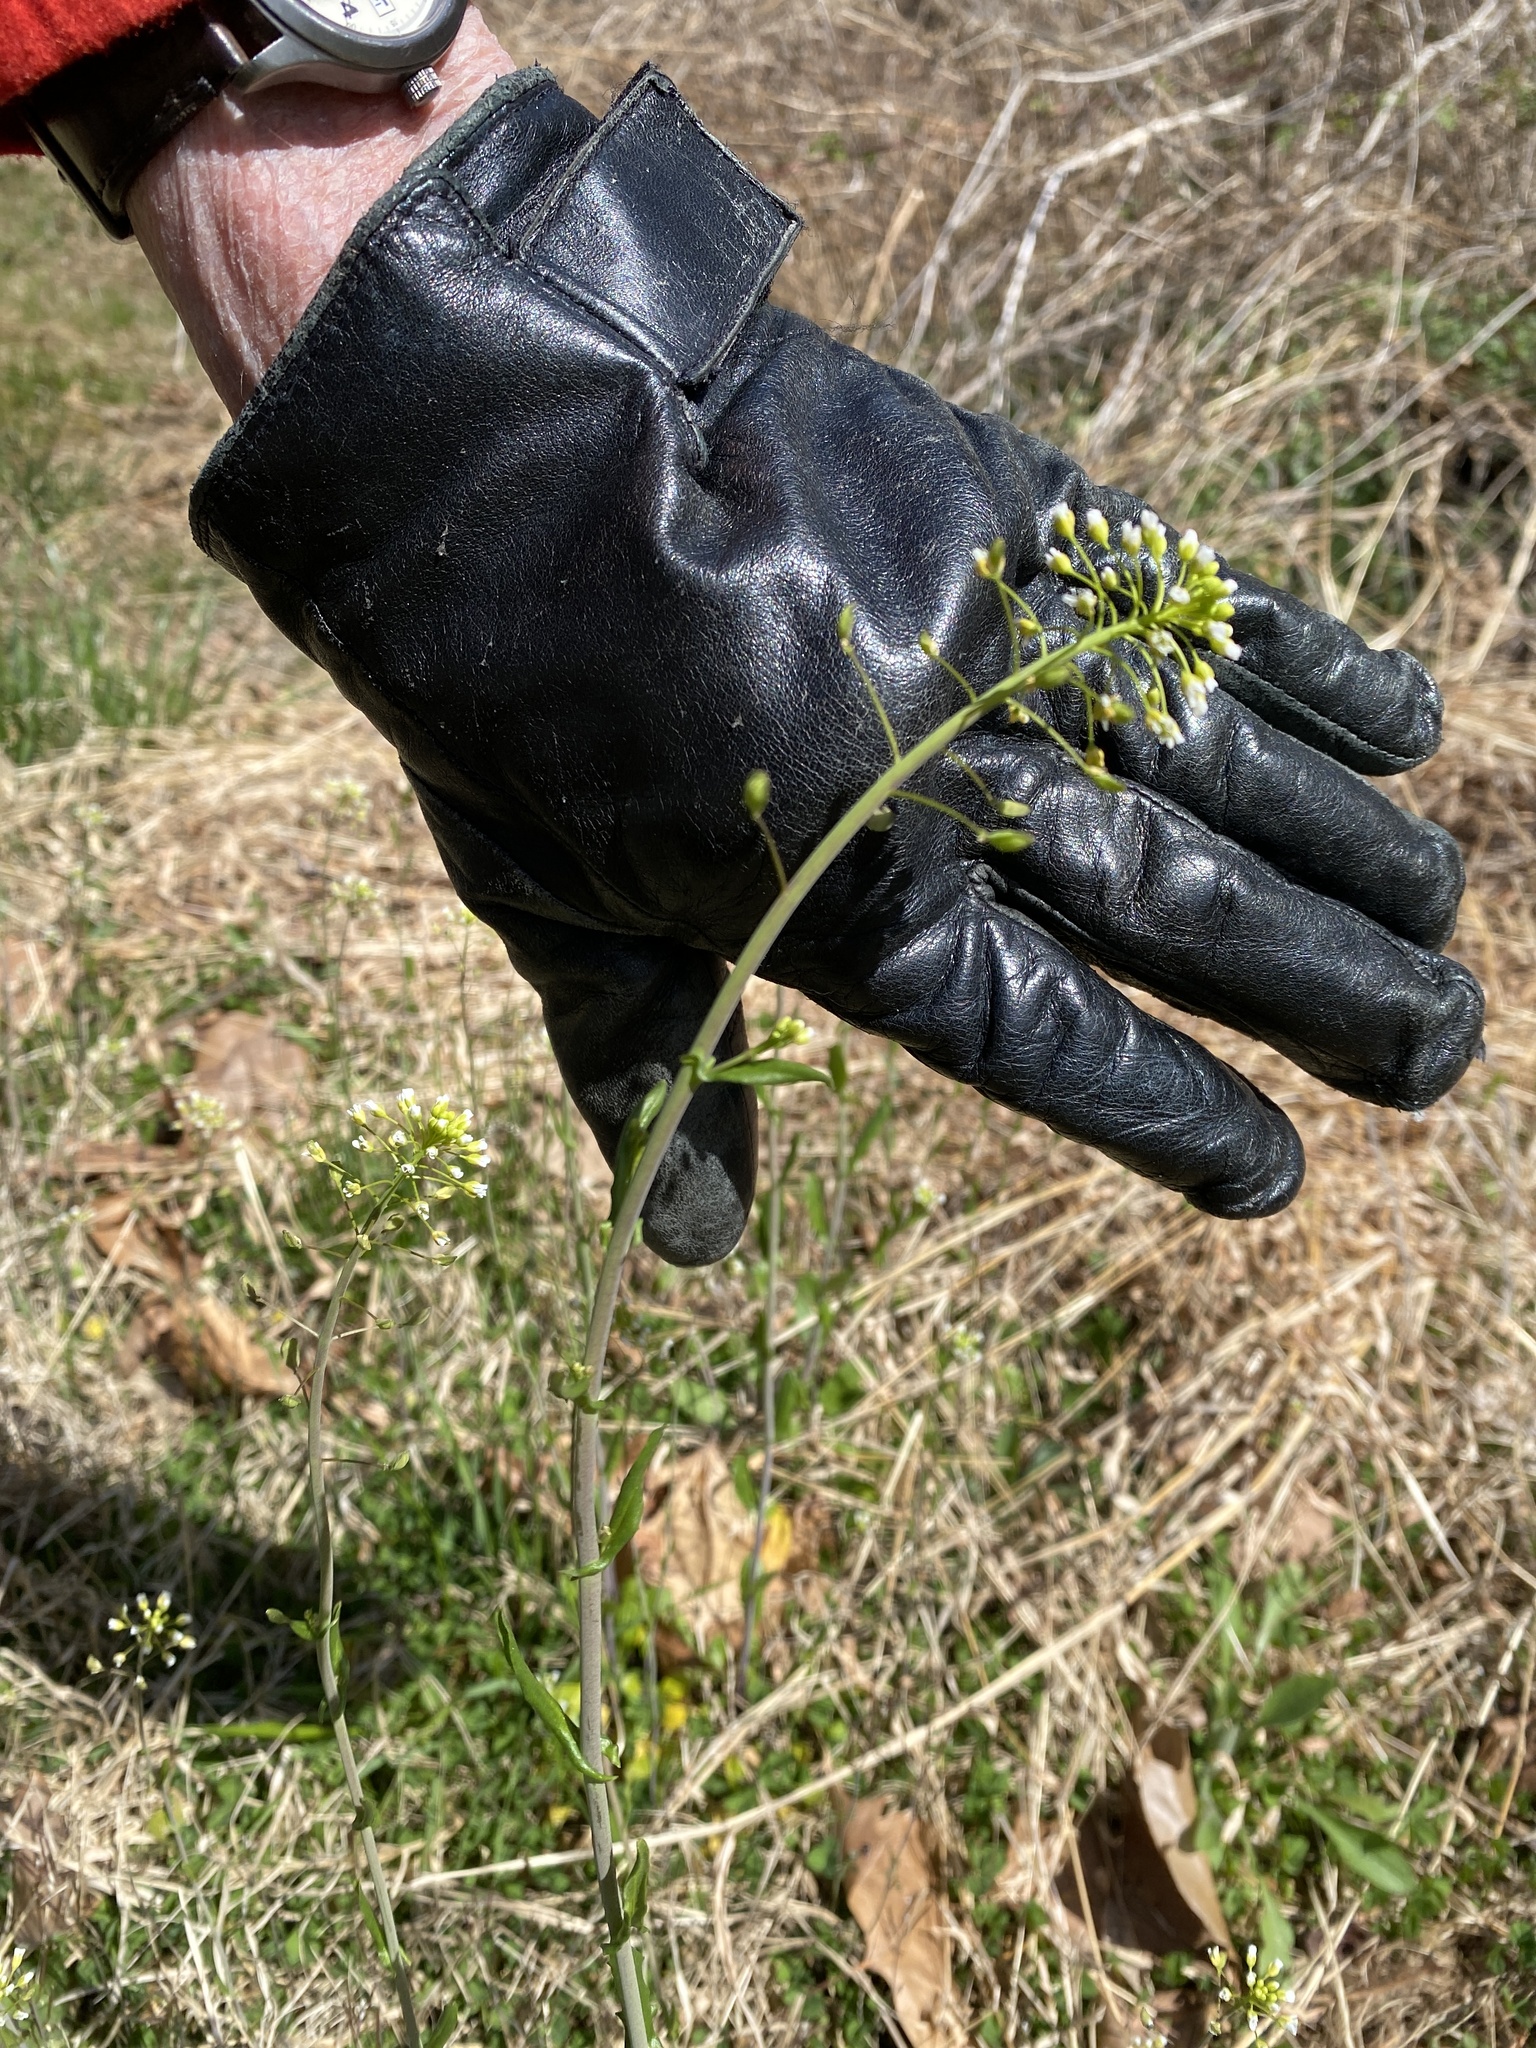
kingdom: Plantae
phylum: Tracheophyta
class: Magnoliopsida
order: Brassicales
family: Brassicaceae
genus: Mummenhoffia
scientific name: Mummenhoffia alliacea
